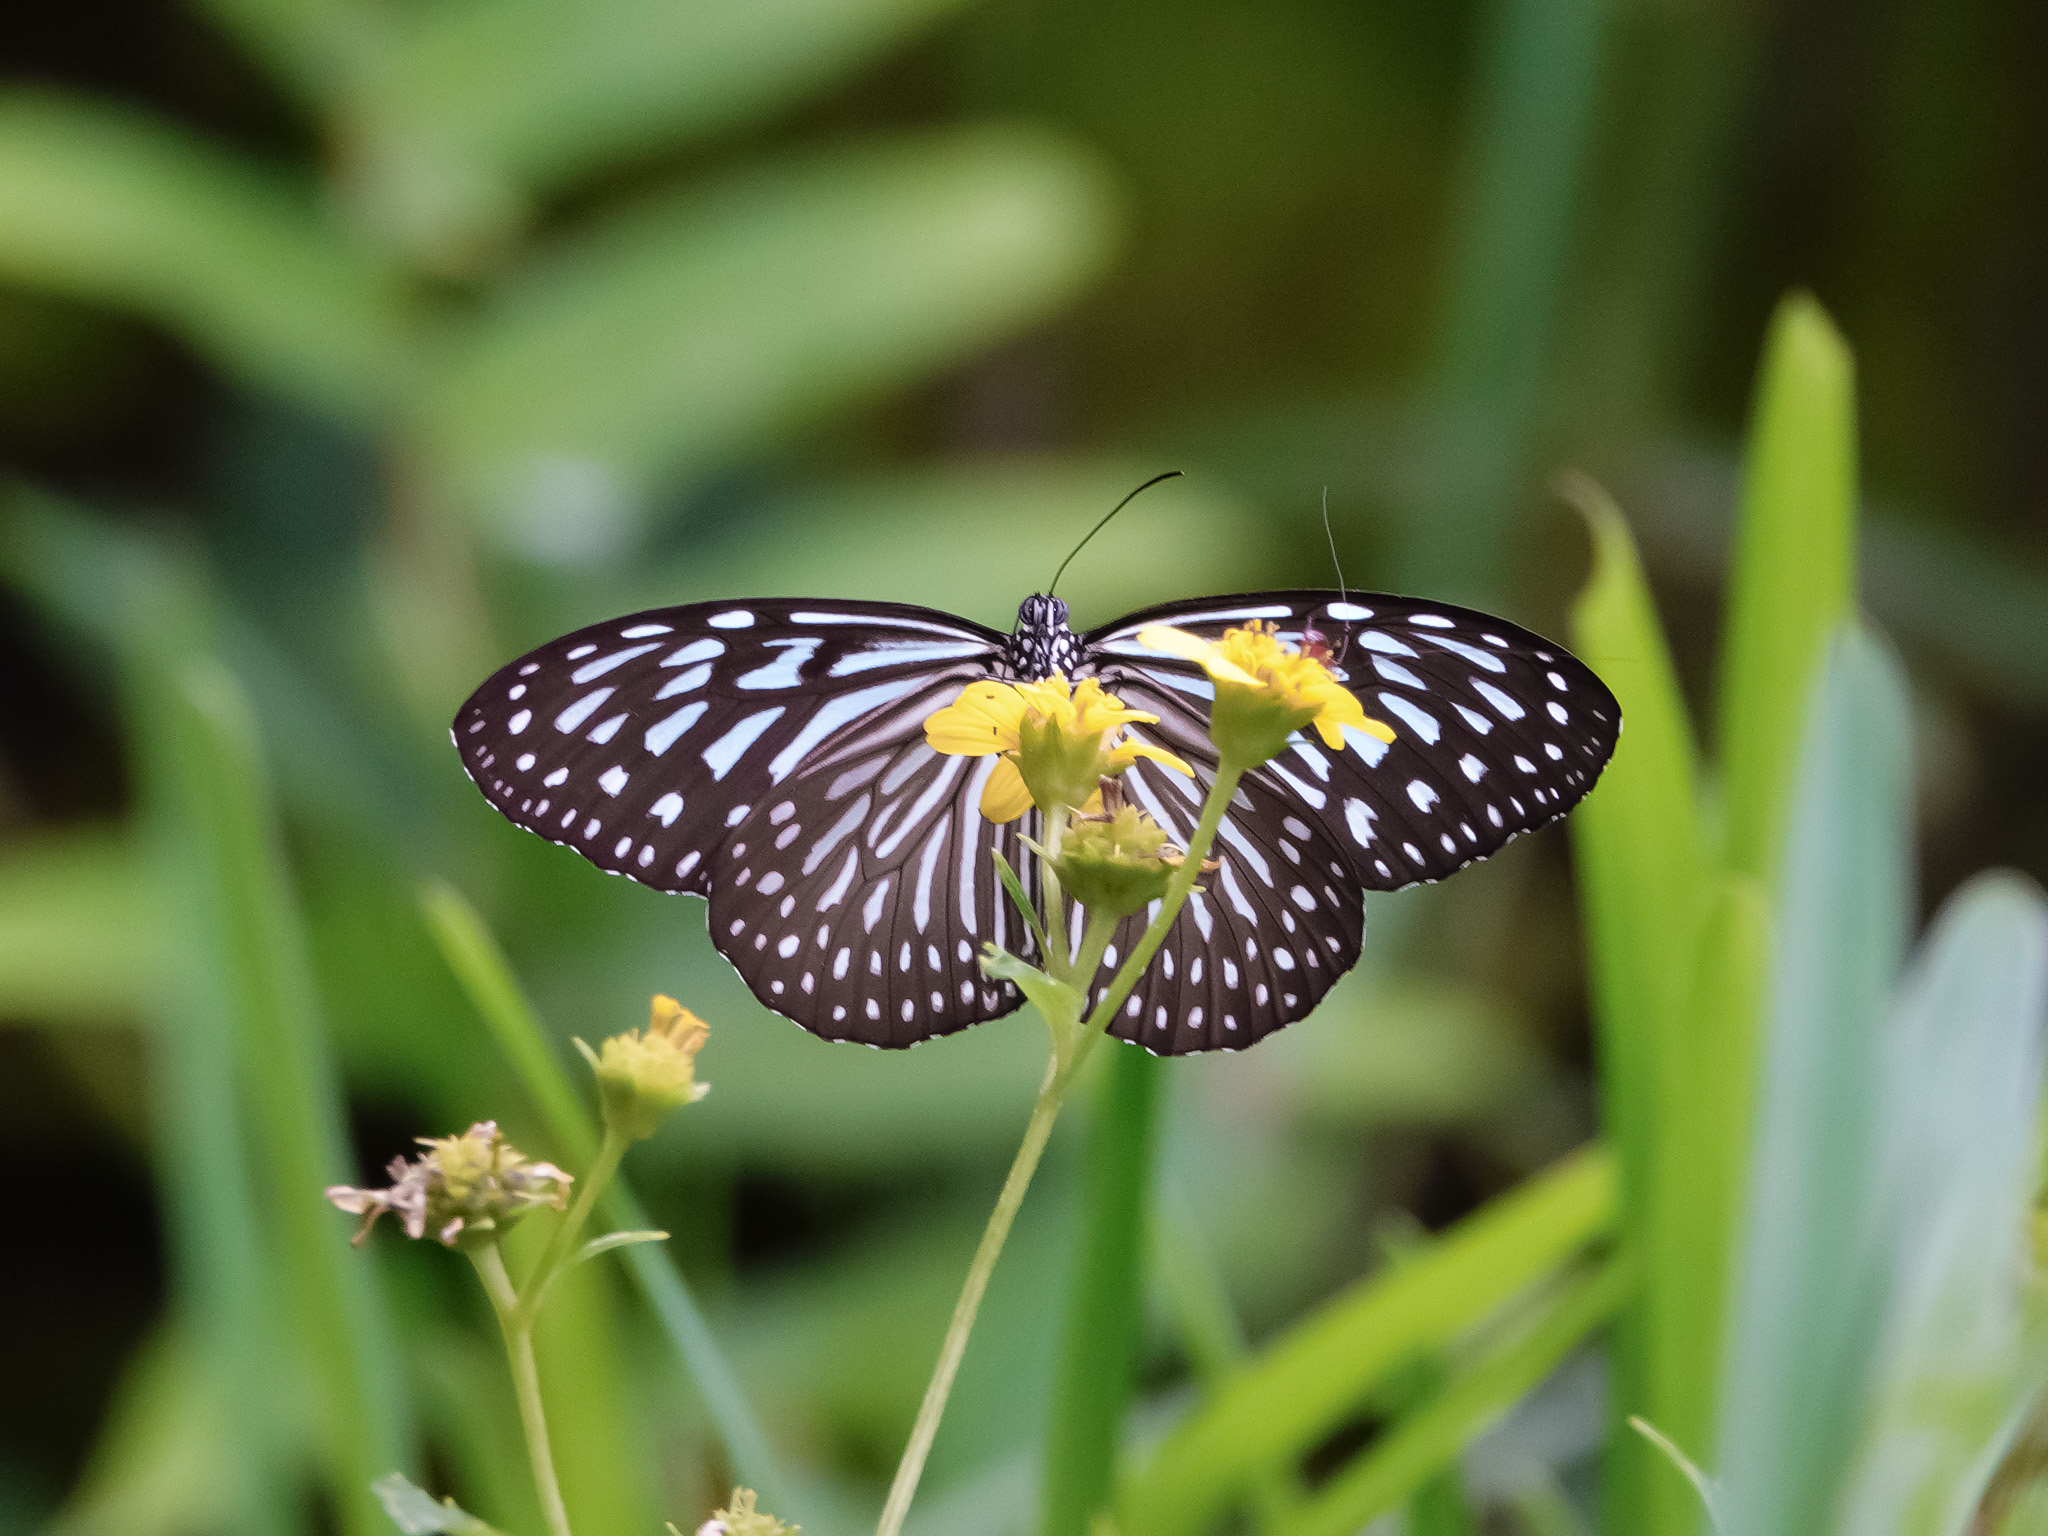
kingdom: Animalia
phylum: Arthropoda
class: Insecta
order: Lepidoptera
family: Nymphalidae
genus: Ideopsis
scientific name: Ideopsis vulgaris
